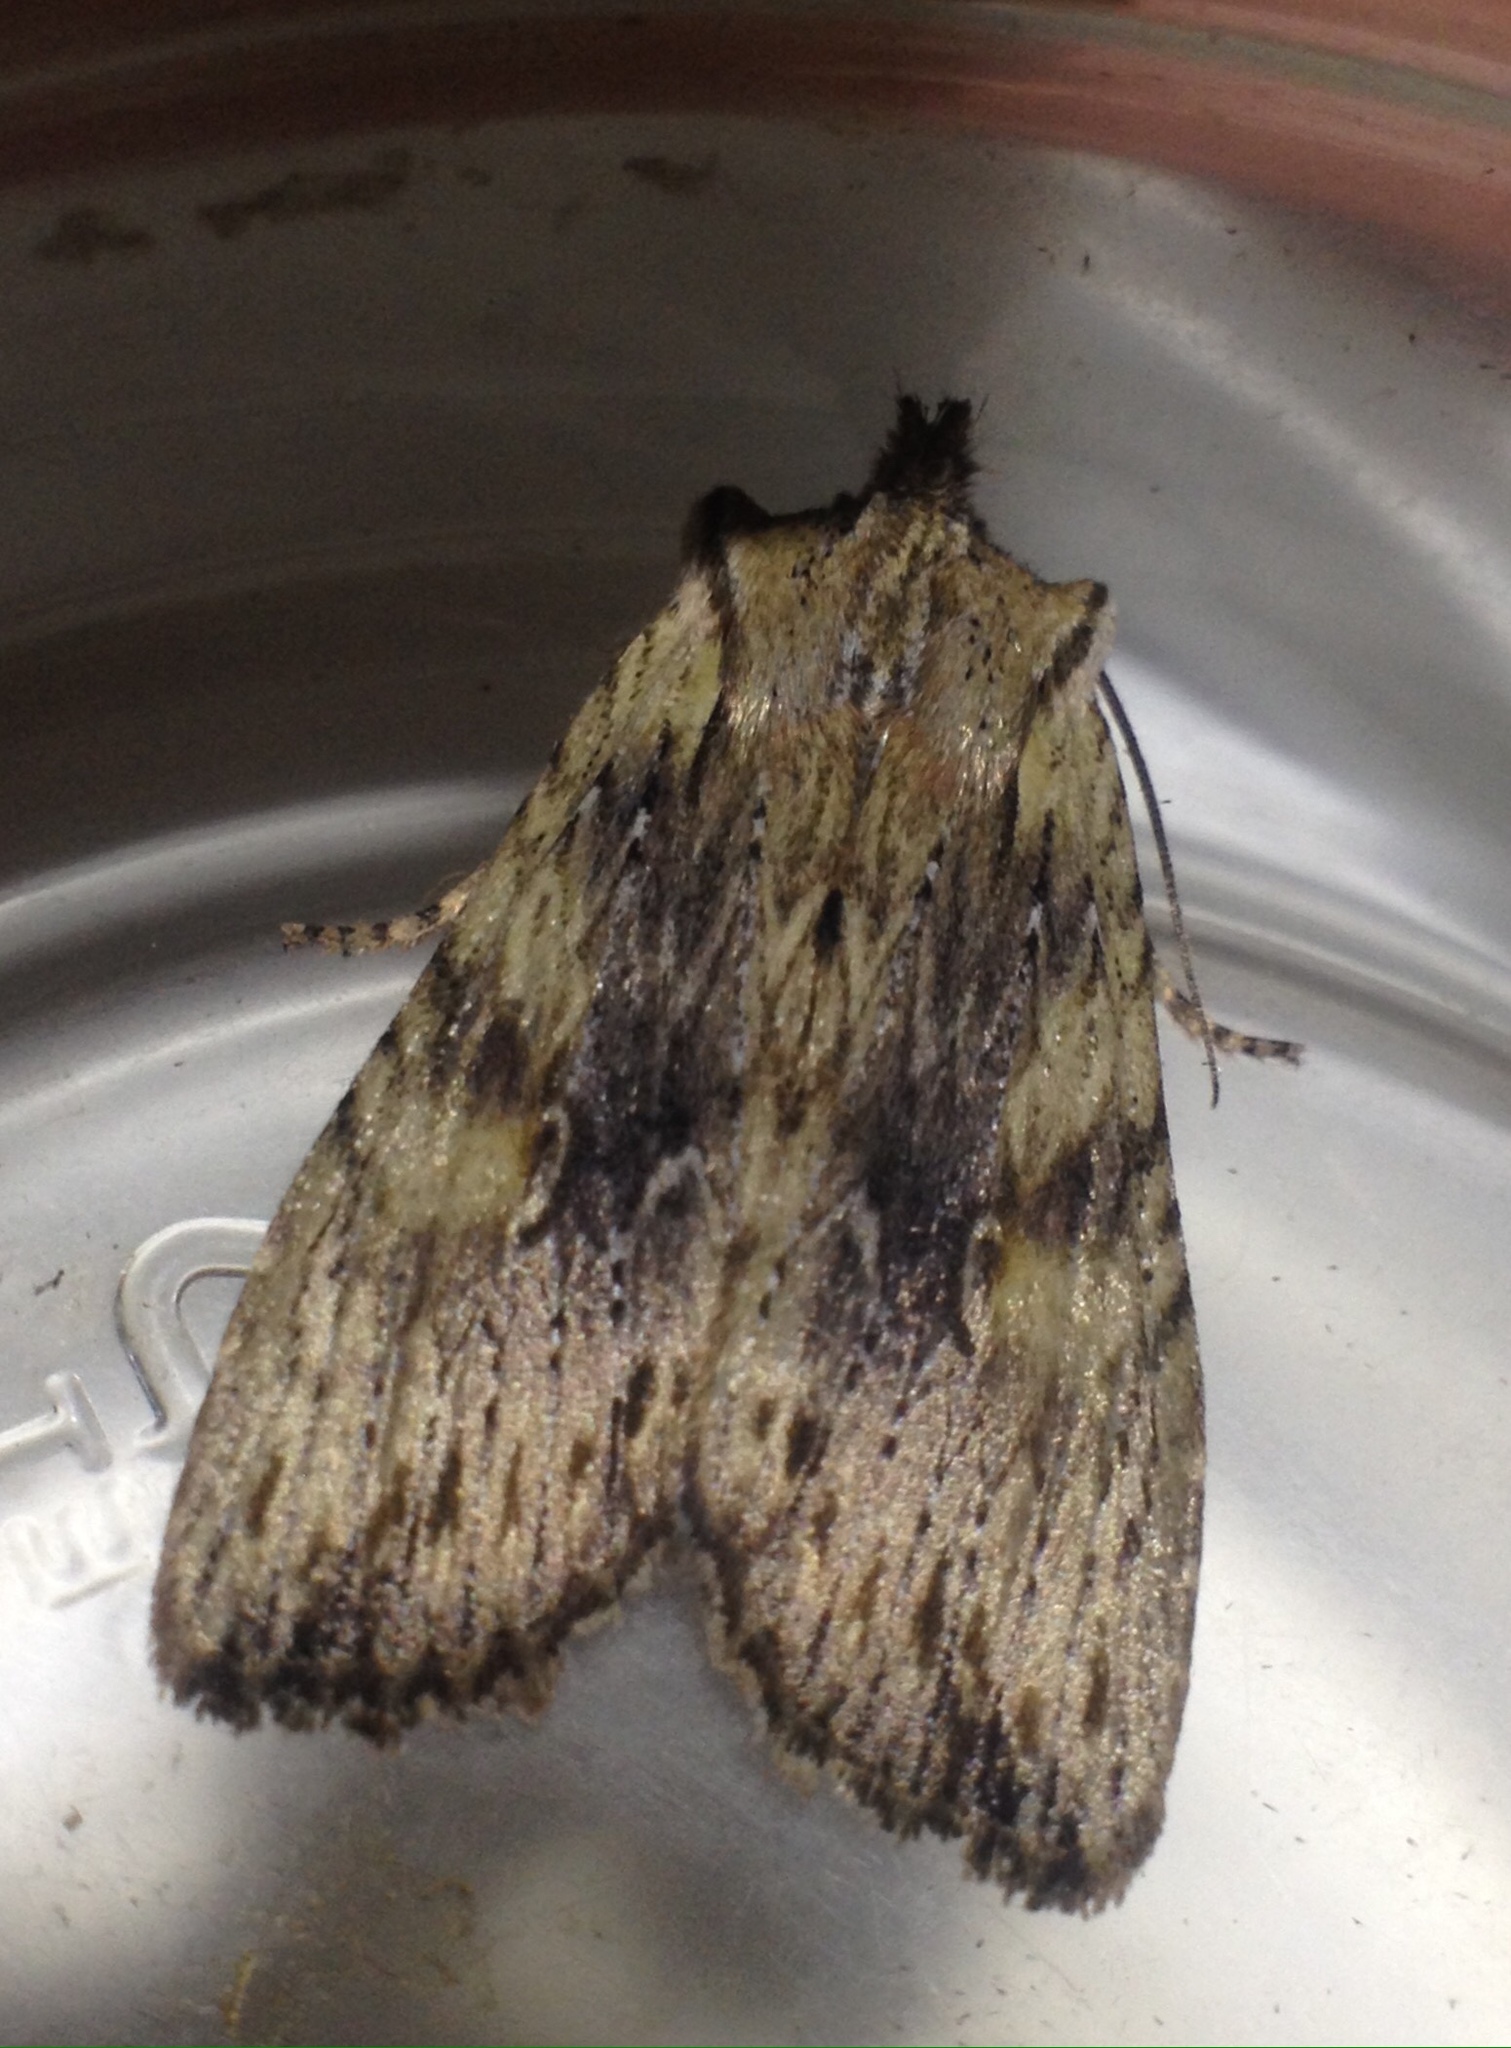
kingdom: Animalia
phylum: Arthropoda
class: Insecta
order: Lepidoptera
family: Noctuidae
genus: Lithophane
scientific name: Lithophane socia
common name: Pale pinion
